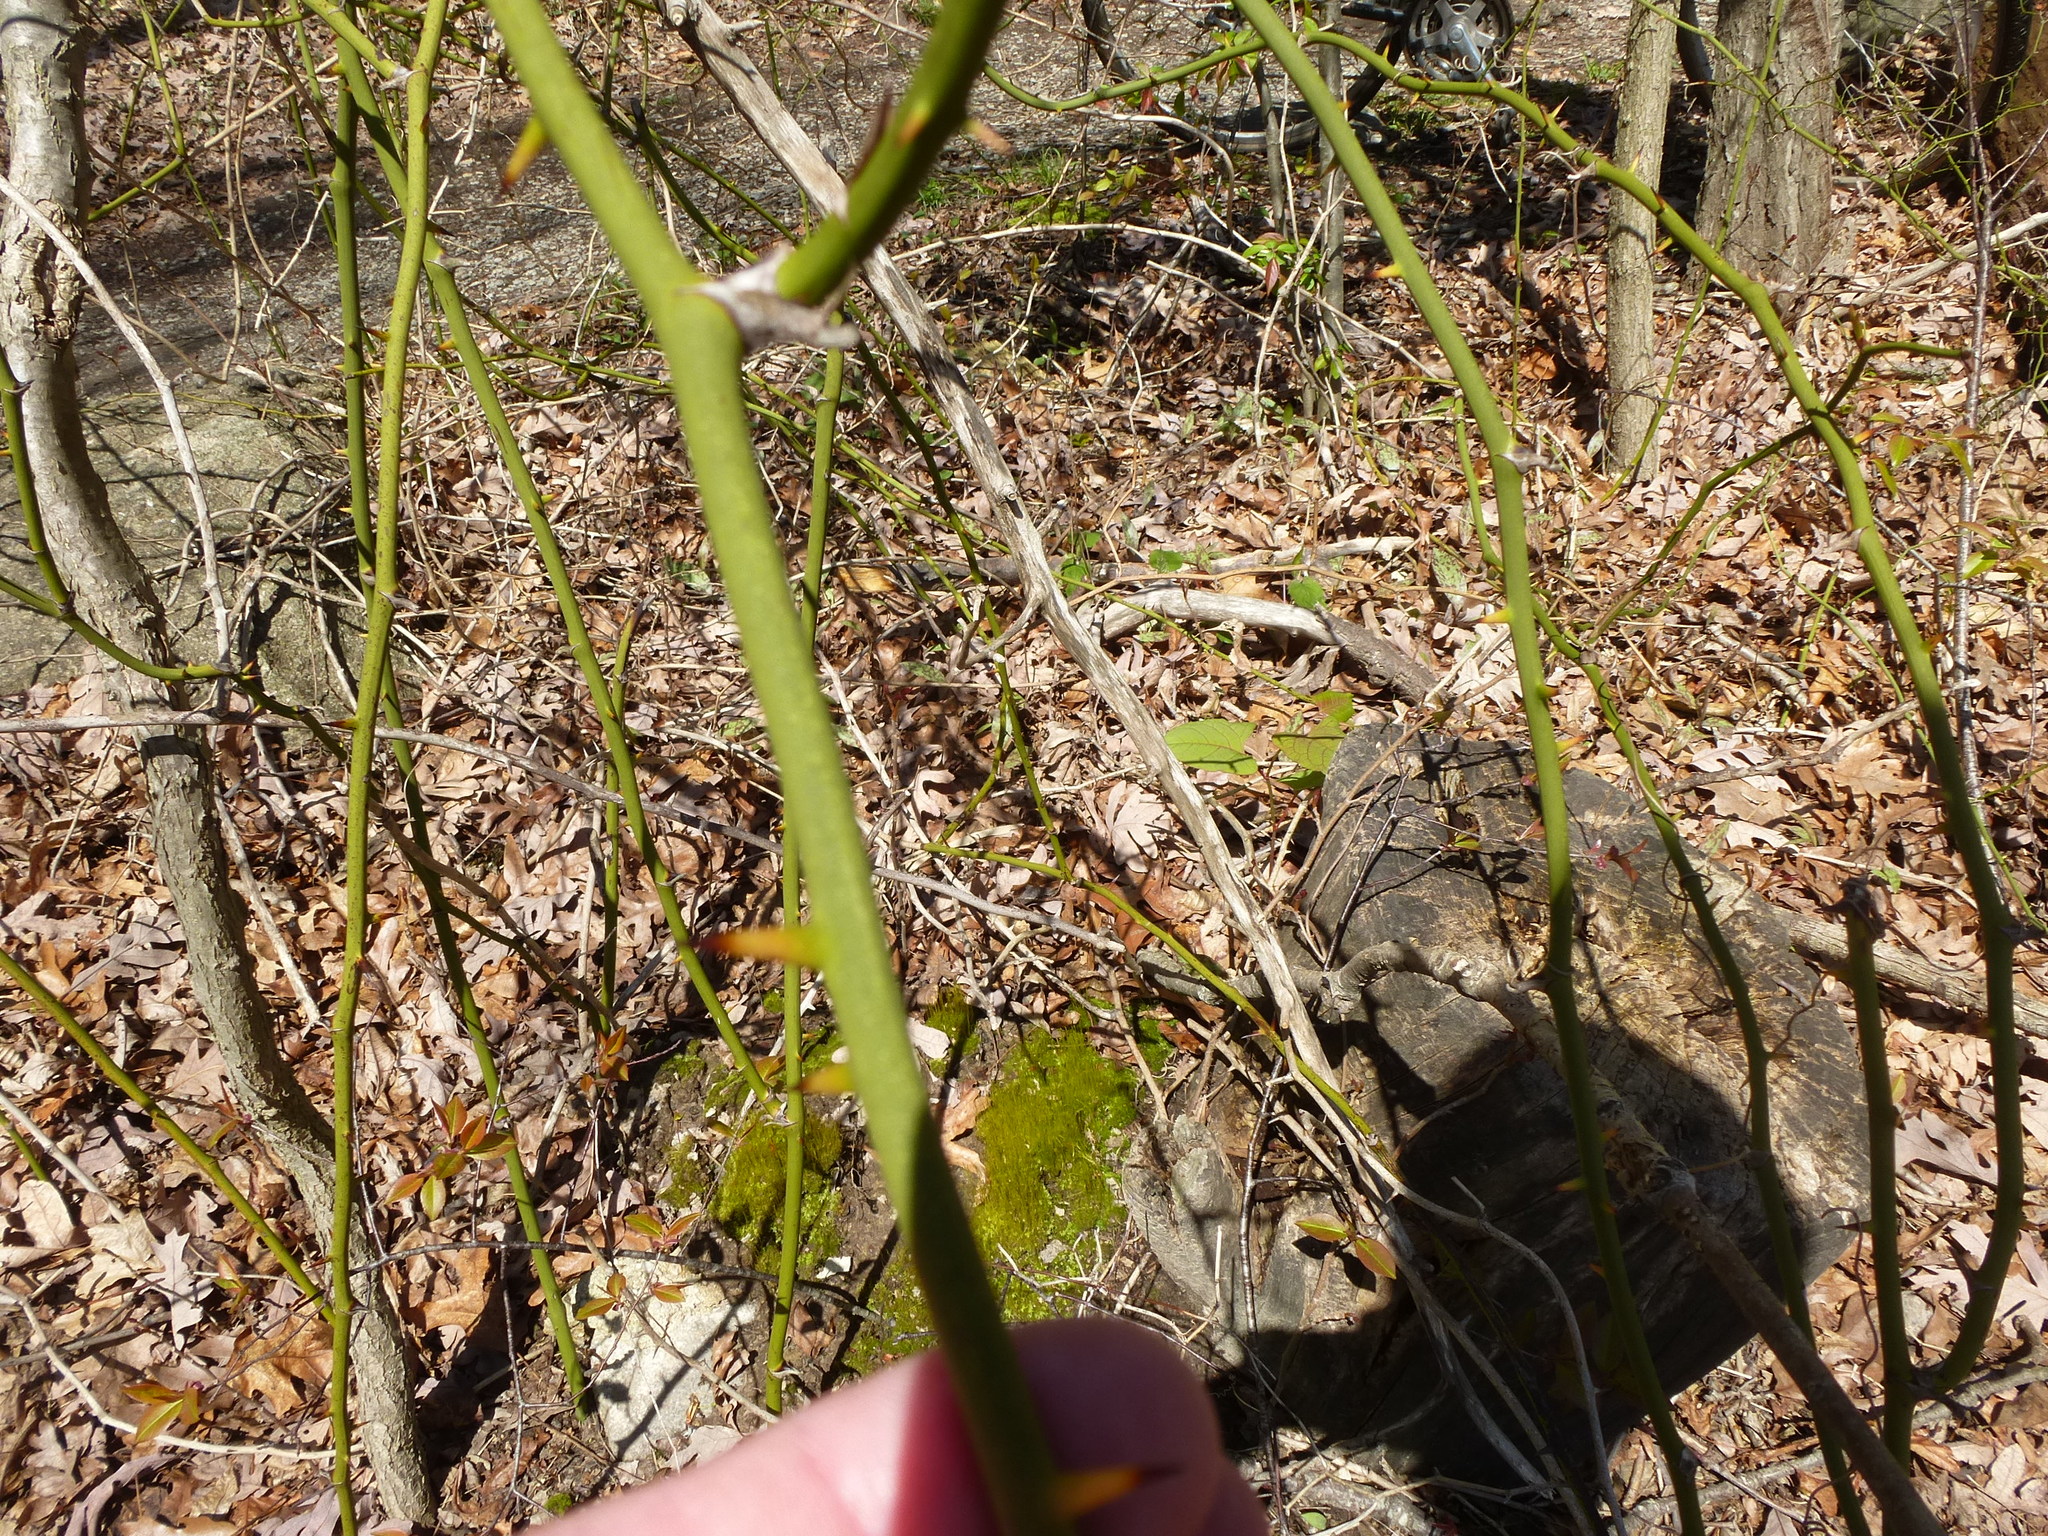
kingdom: Plantae
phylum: Tracheophyta
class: Liliopsida
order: Liliales
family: Smilacaceae
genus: Smilax
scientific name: Smilax rotundifolia
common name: Bullbriar
